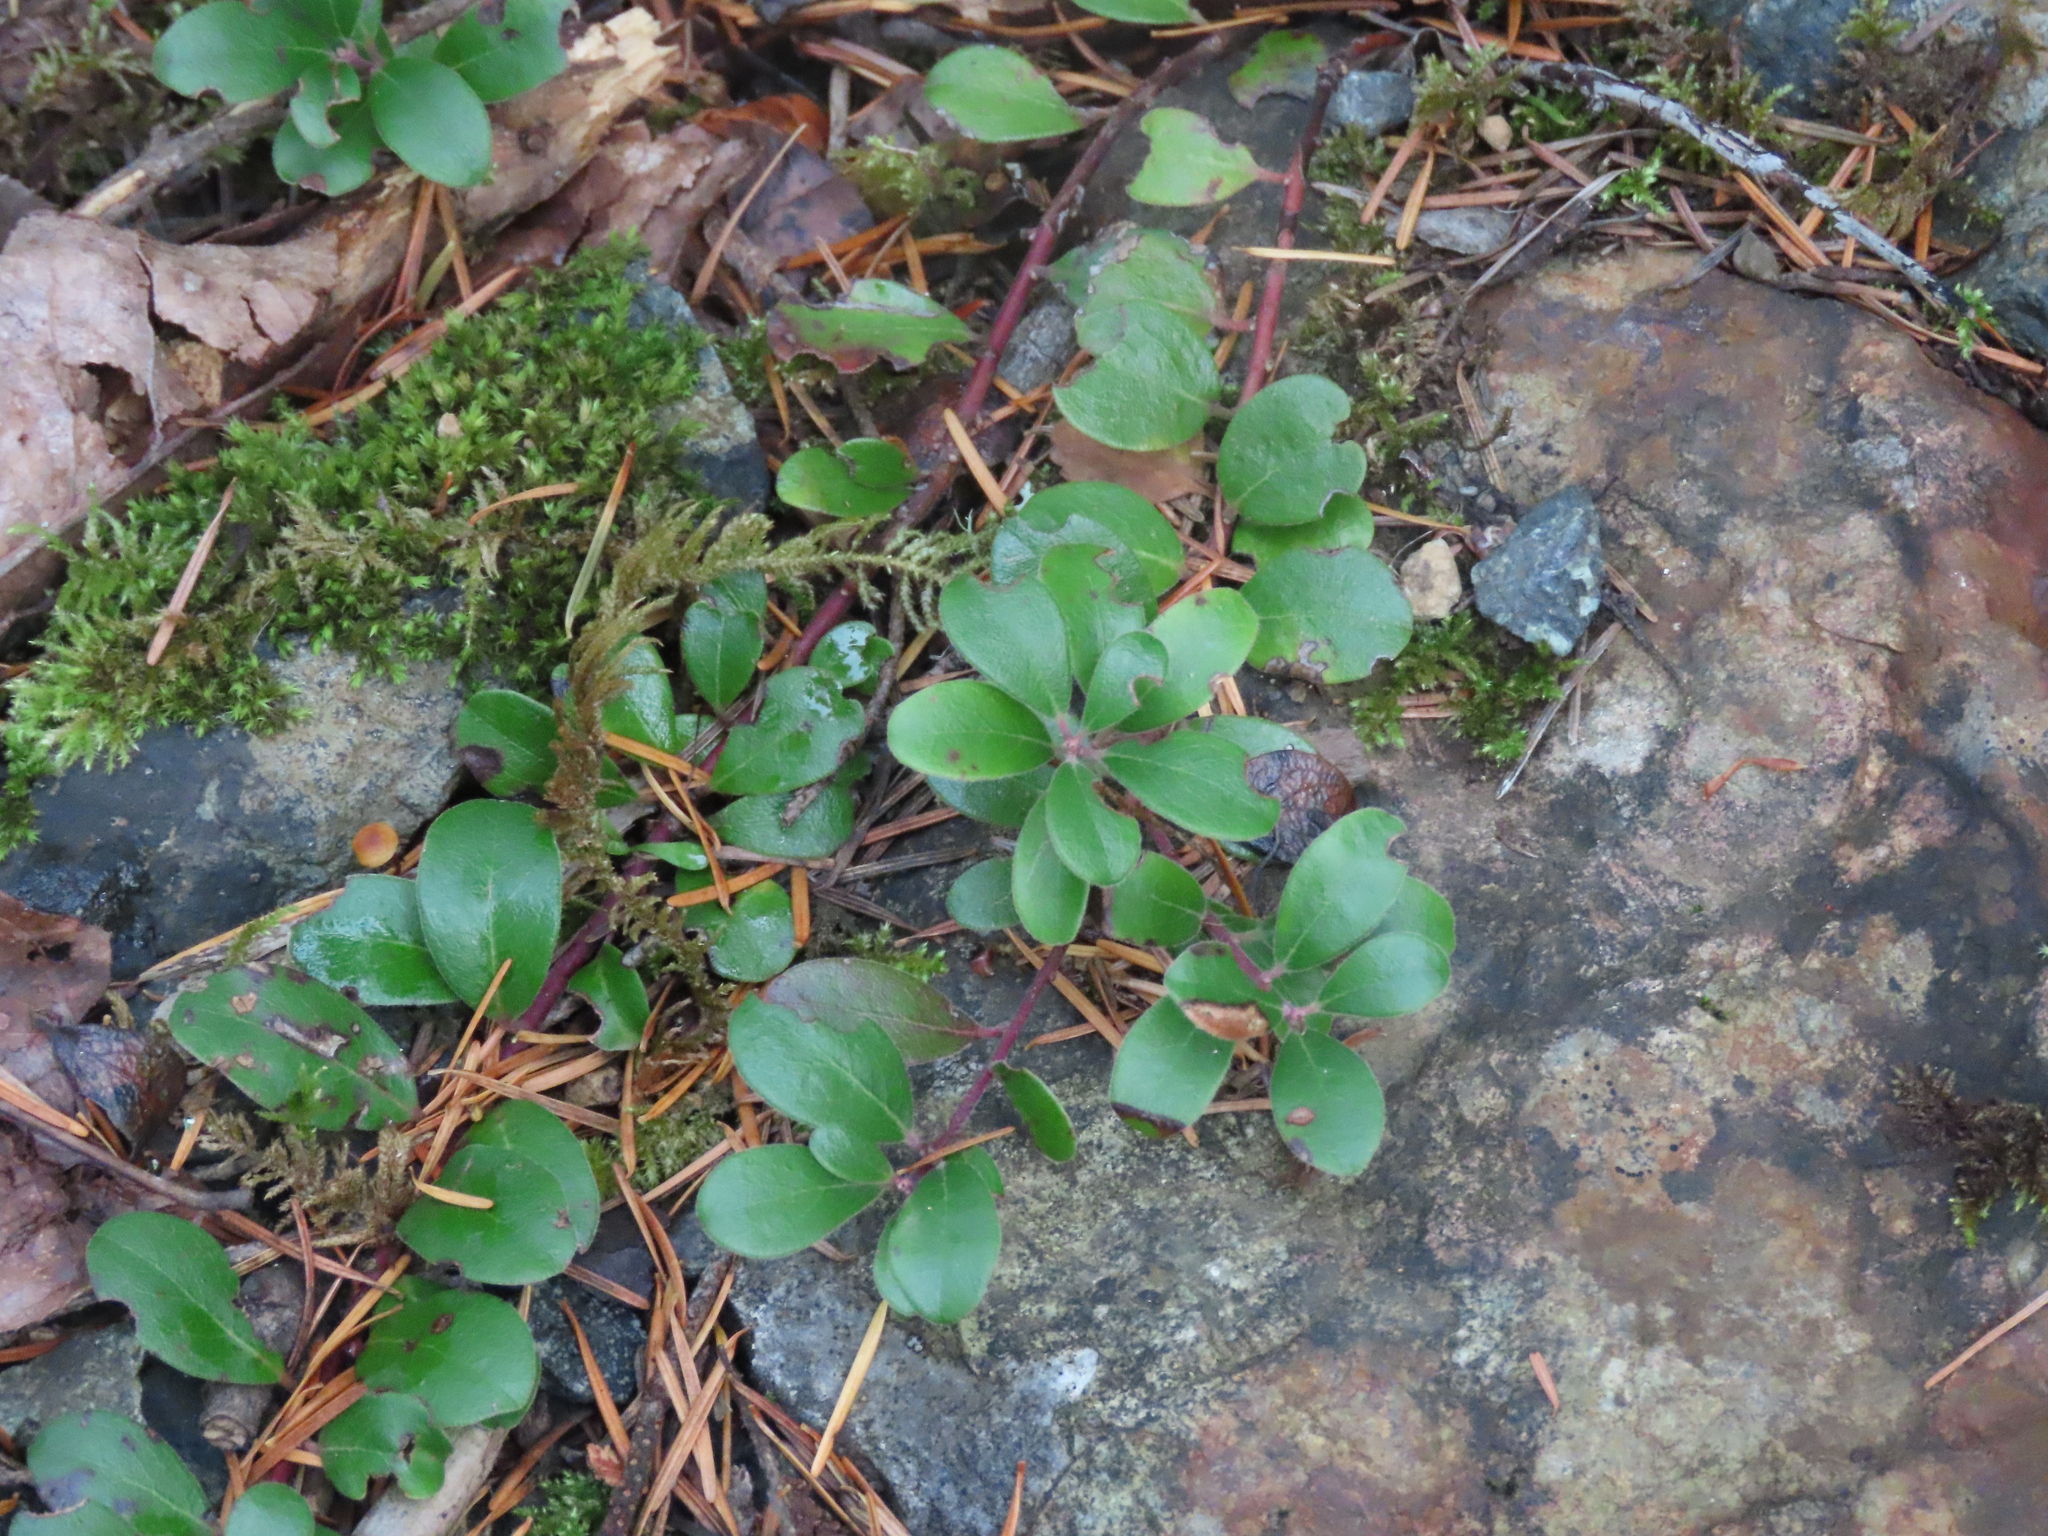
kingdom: Plantae
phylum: Tracheophyta
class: Magnoliopsida
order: Ericales
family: Ericaceae
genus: Arctostaphylos
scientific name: Arctostaphylos uva-ursi
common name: Bearberry
